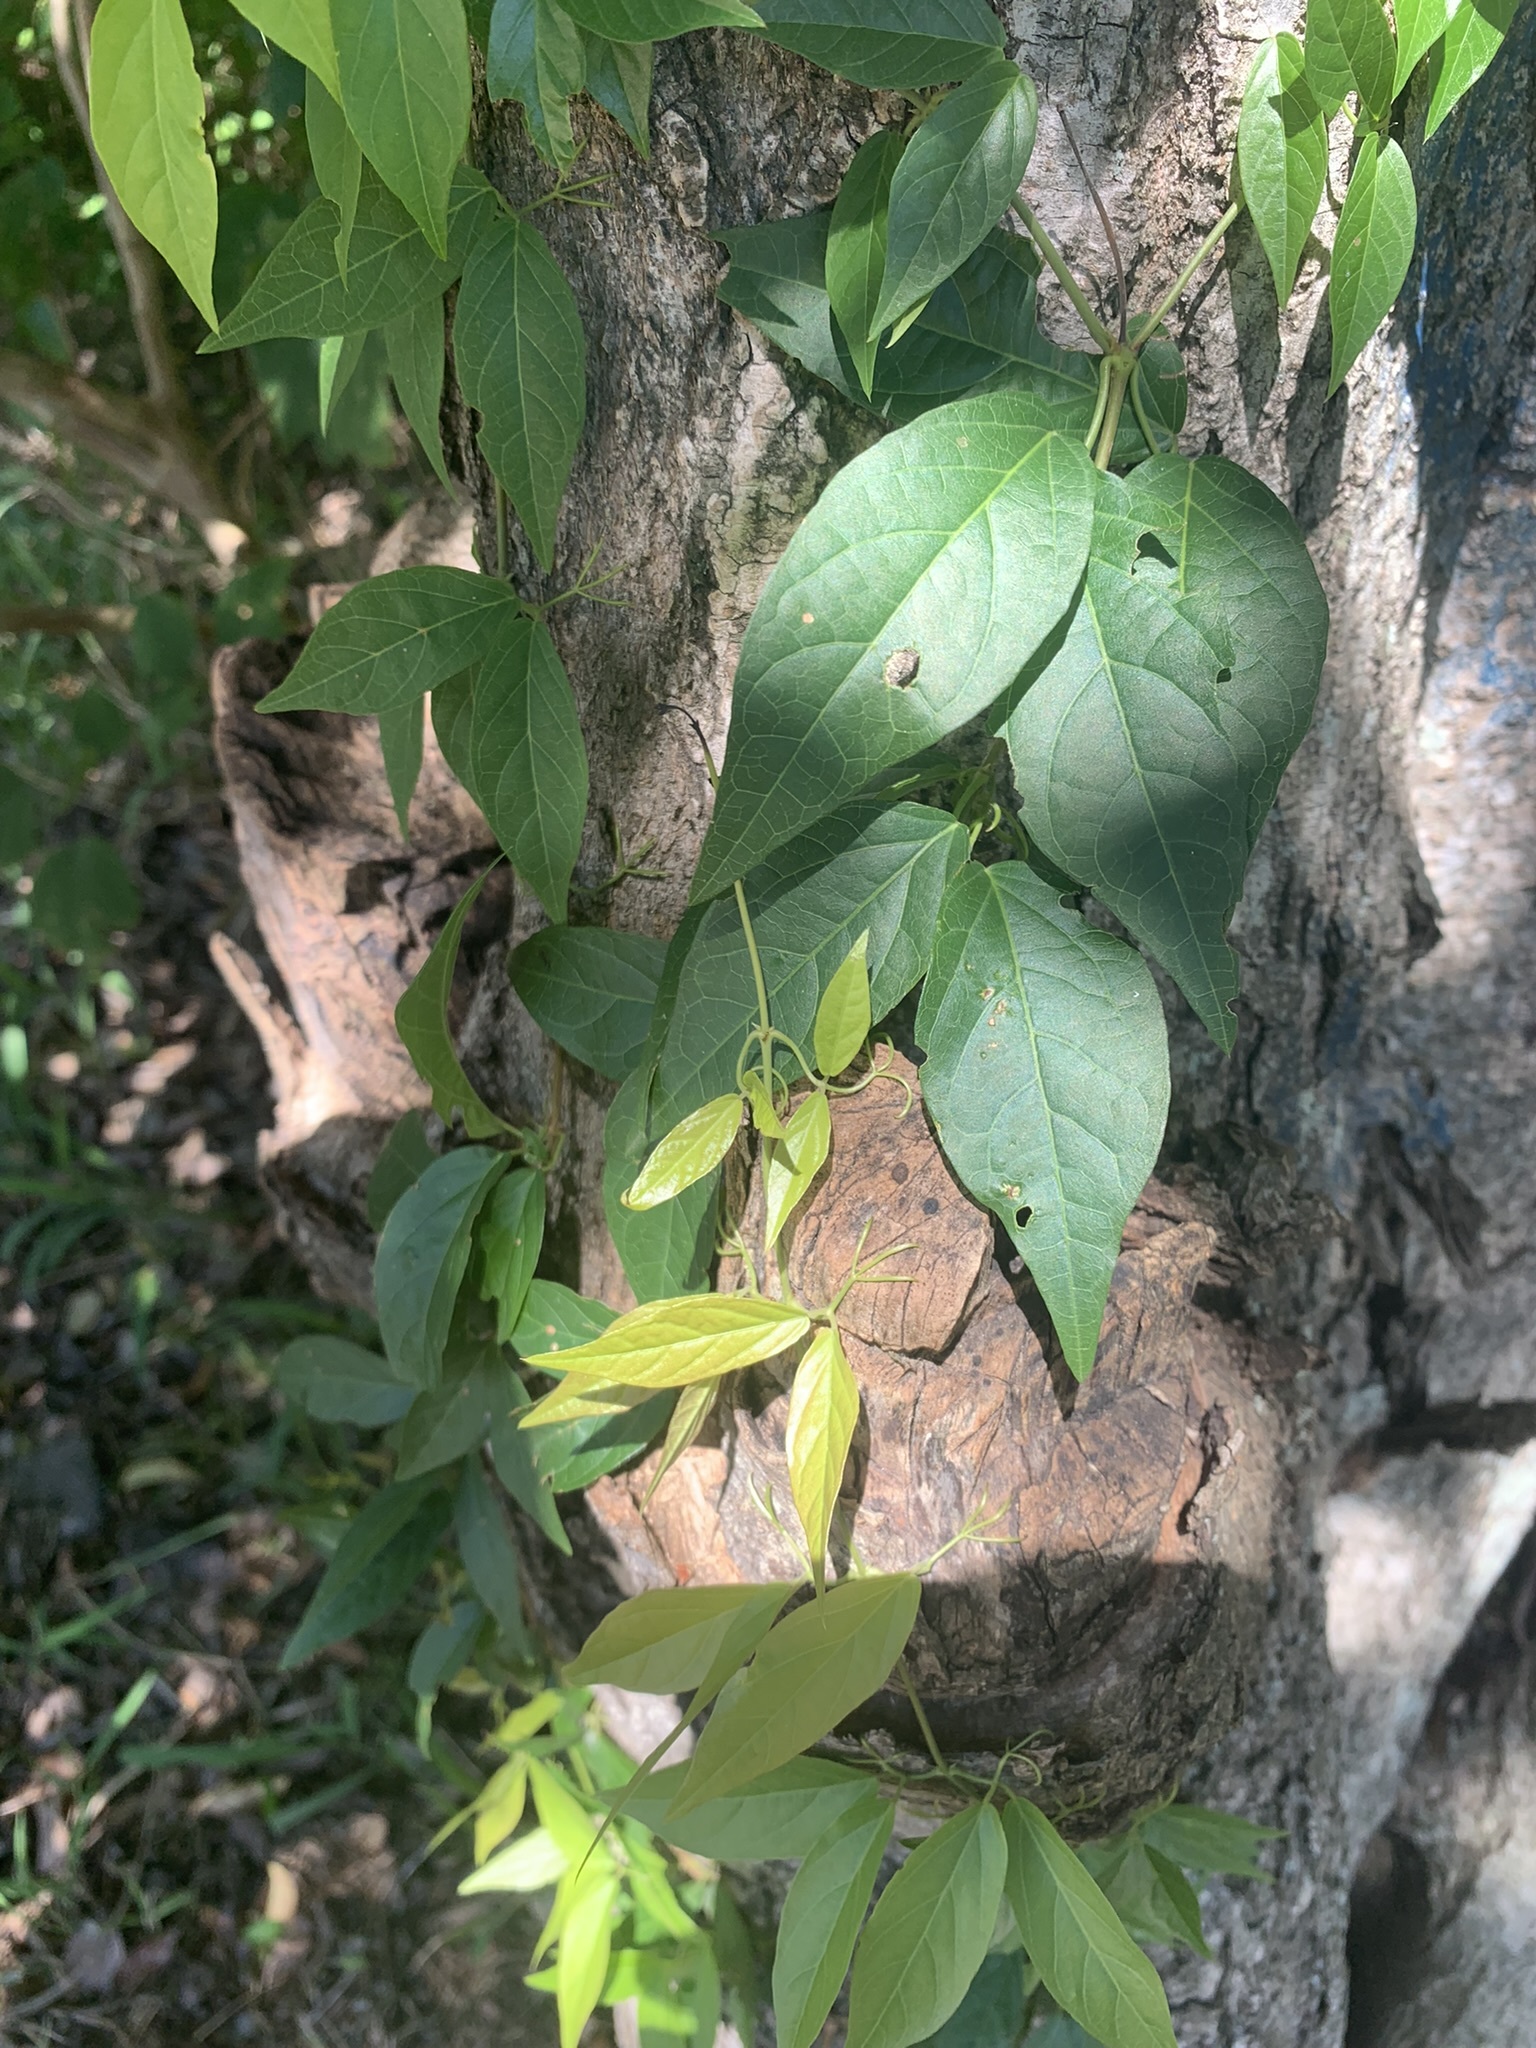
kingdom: Plantae
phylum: Tracheophyta
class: Magnoliopsida
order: Lamiales
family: Bignoniaceae
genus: Dolichandra
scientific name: Dolichandra unguis-cati
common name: Catclaw vine
